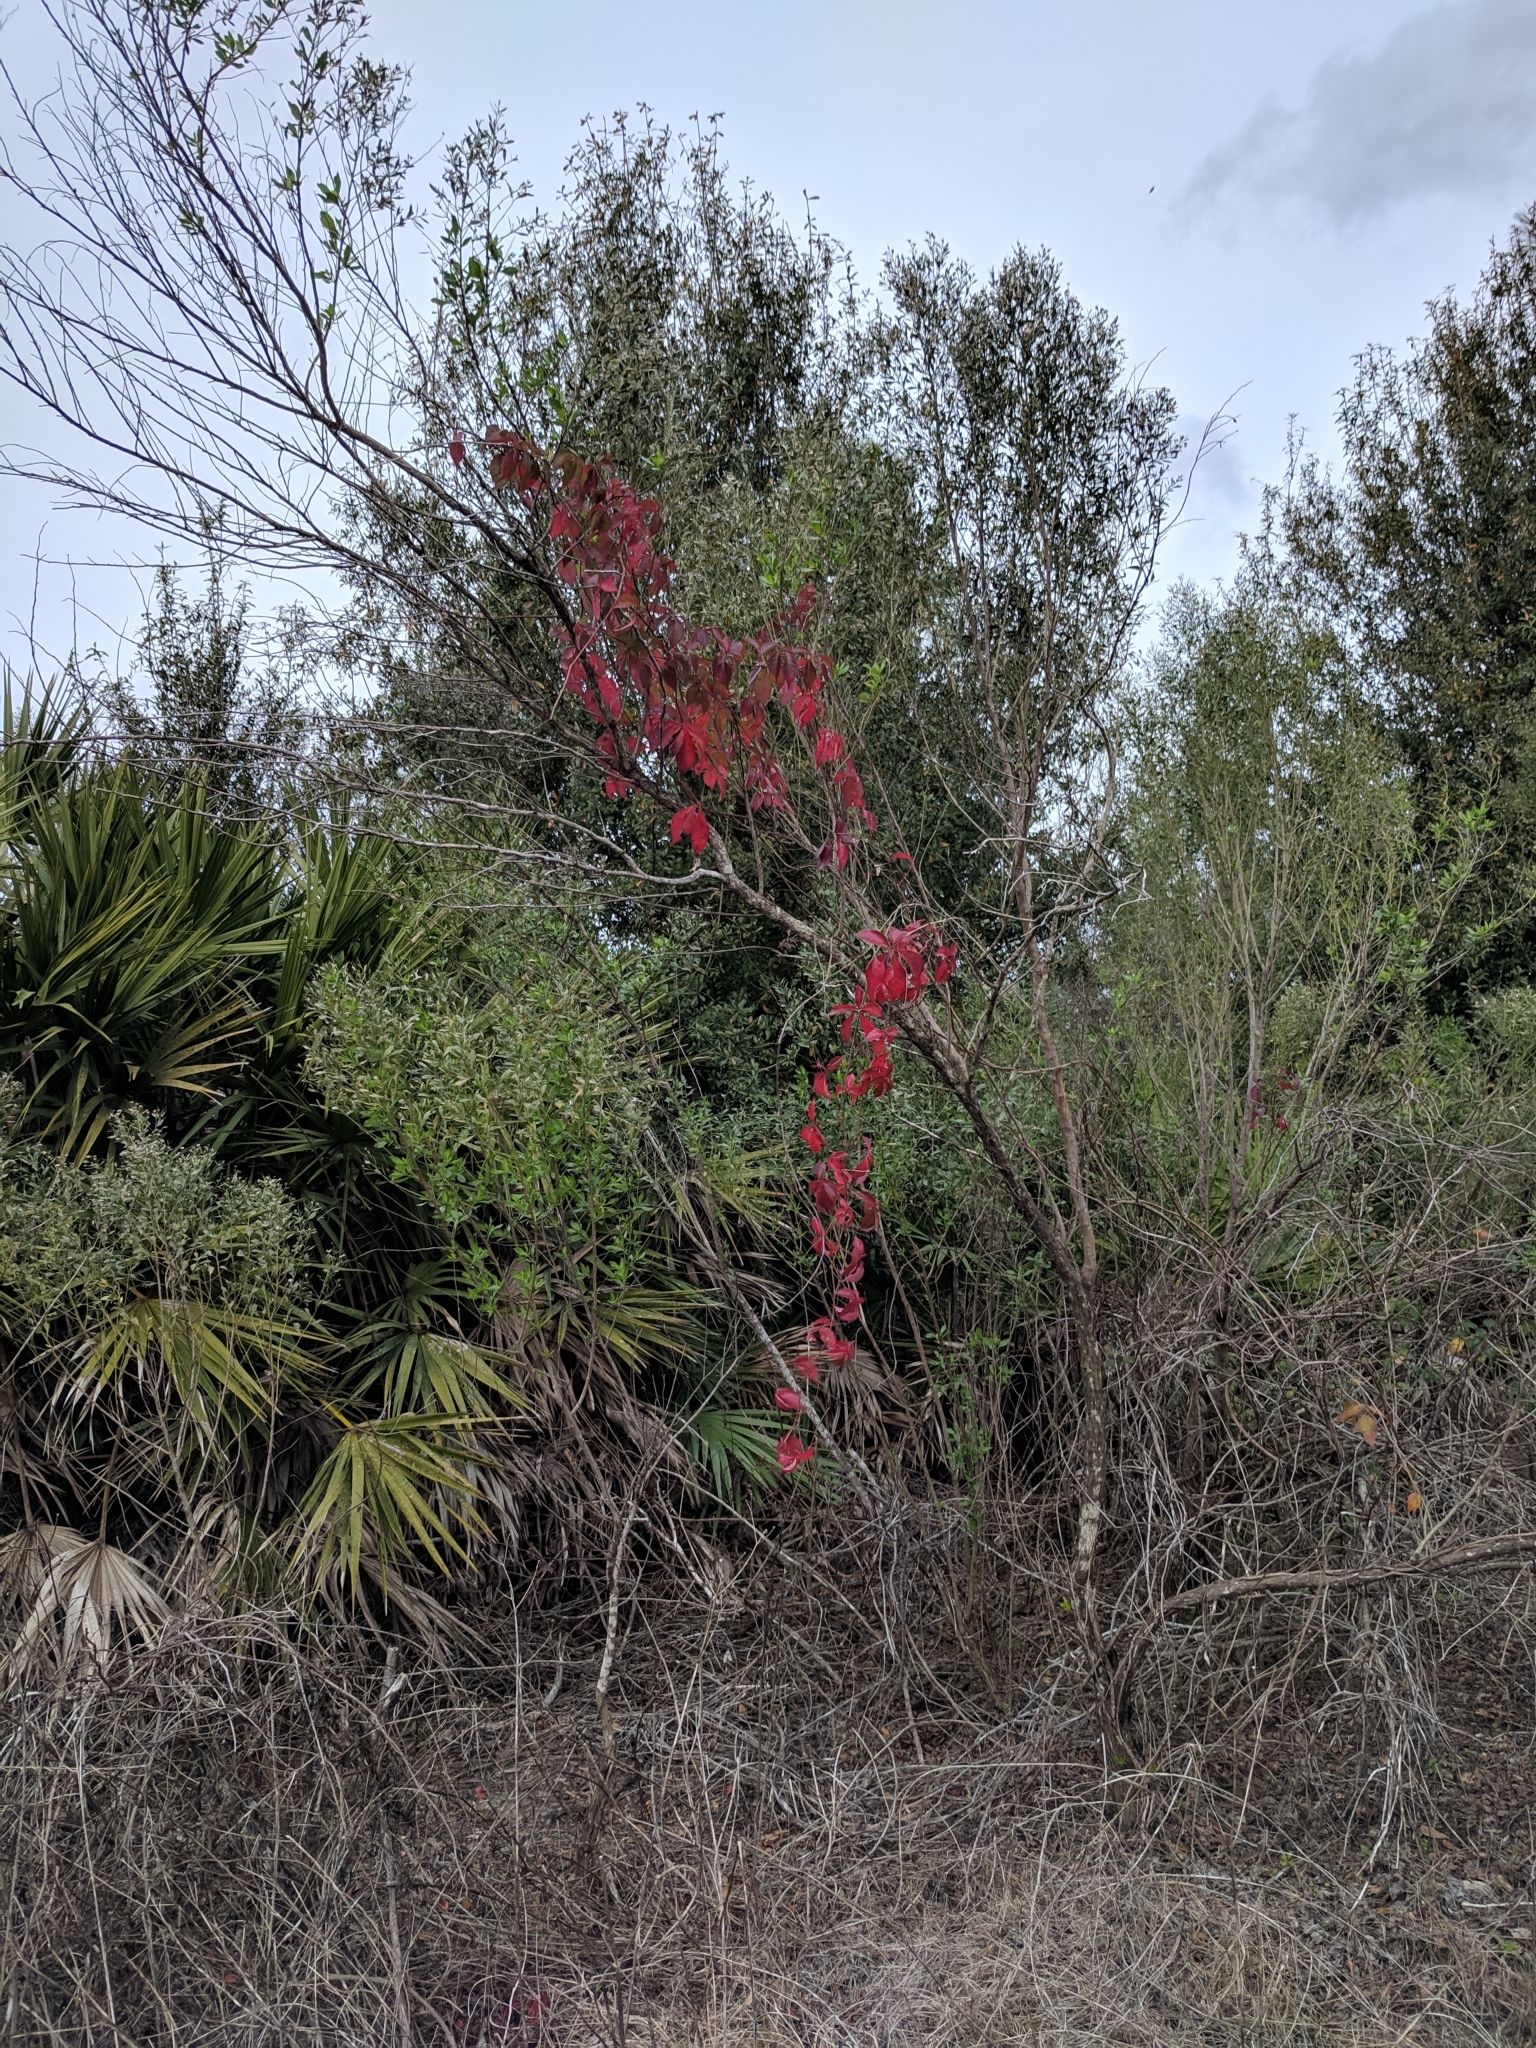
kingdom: Plantae
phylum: Tracheophyta
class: Magnoliopsida
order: Vitales
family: Vitaceae
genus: Parthenocissus
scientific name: Parthenocissus quinquefolia
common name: Virginia-creeper
